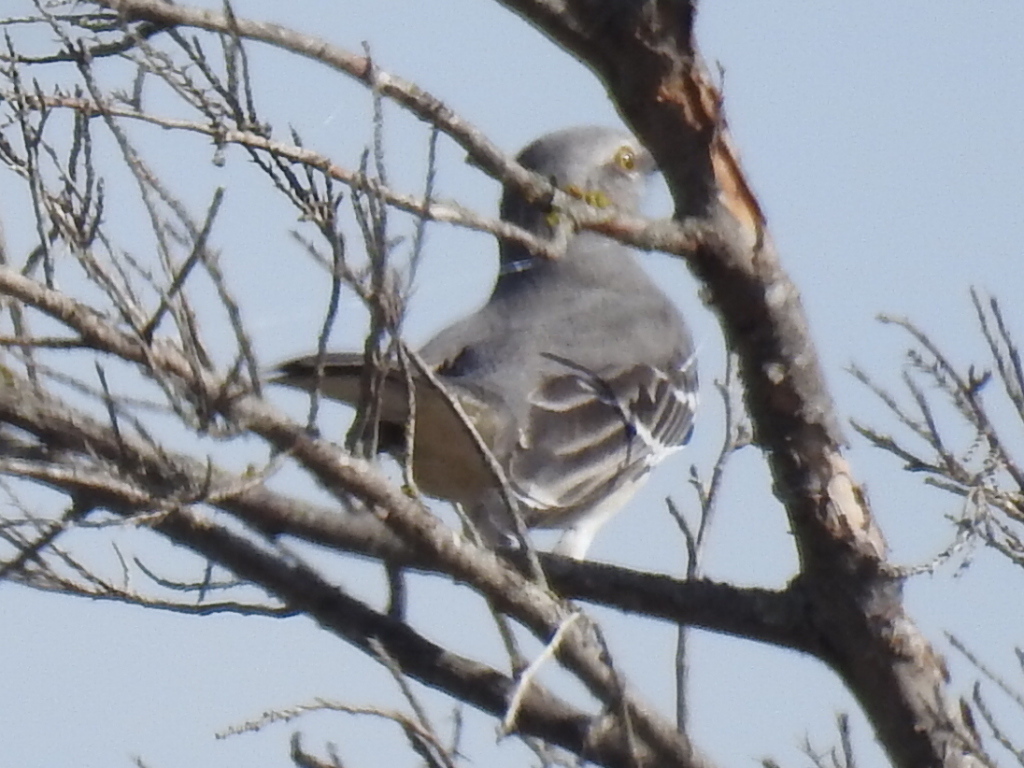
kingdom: Animalia
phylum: Chordata
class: Aves
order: Passeriformes
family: Mimidae
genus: Mimus
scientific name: Mimus polyglottos
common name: Northern mockingbird
